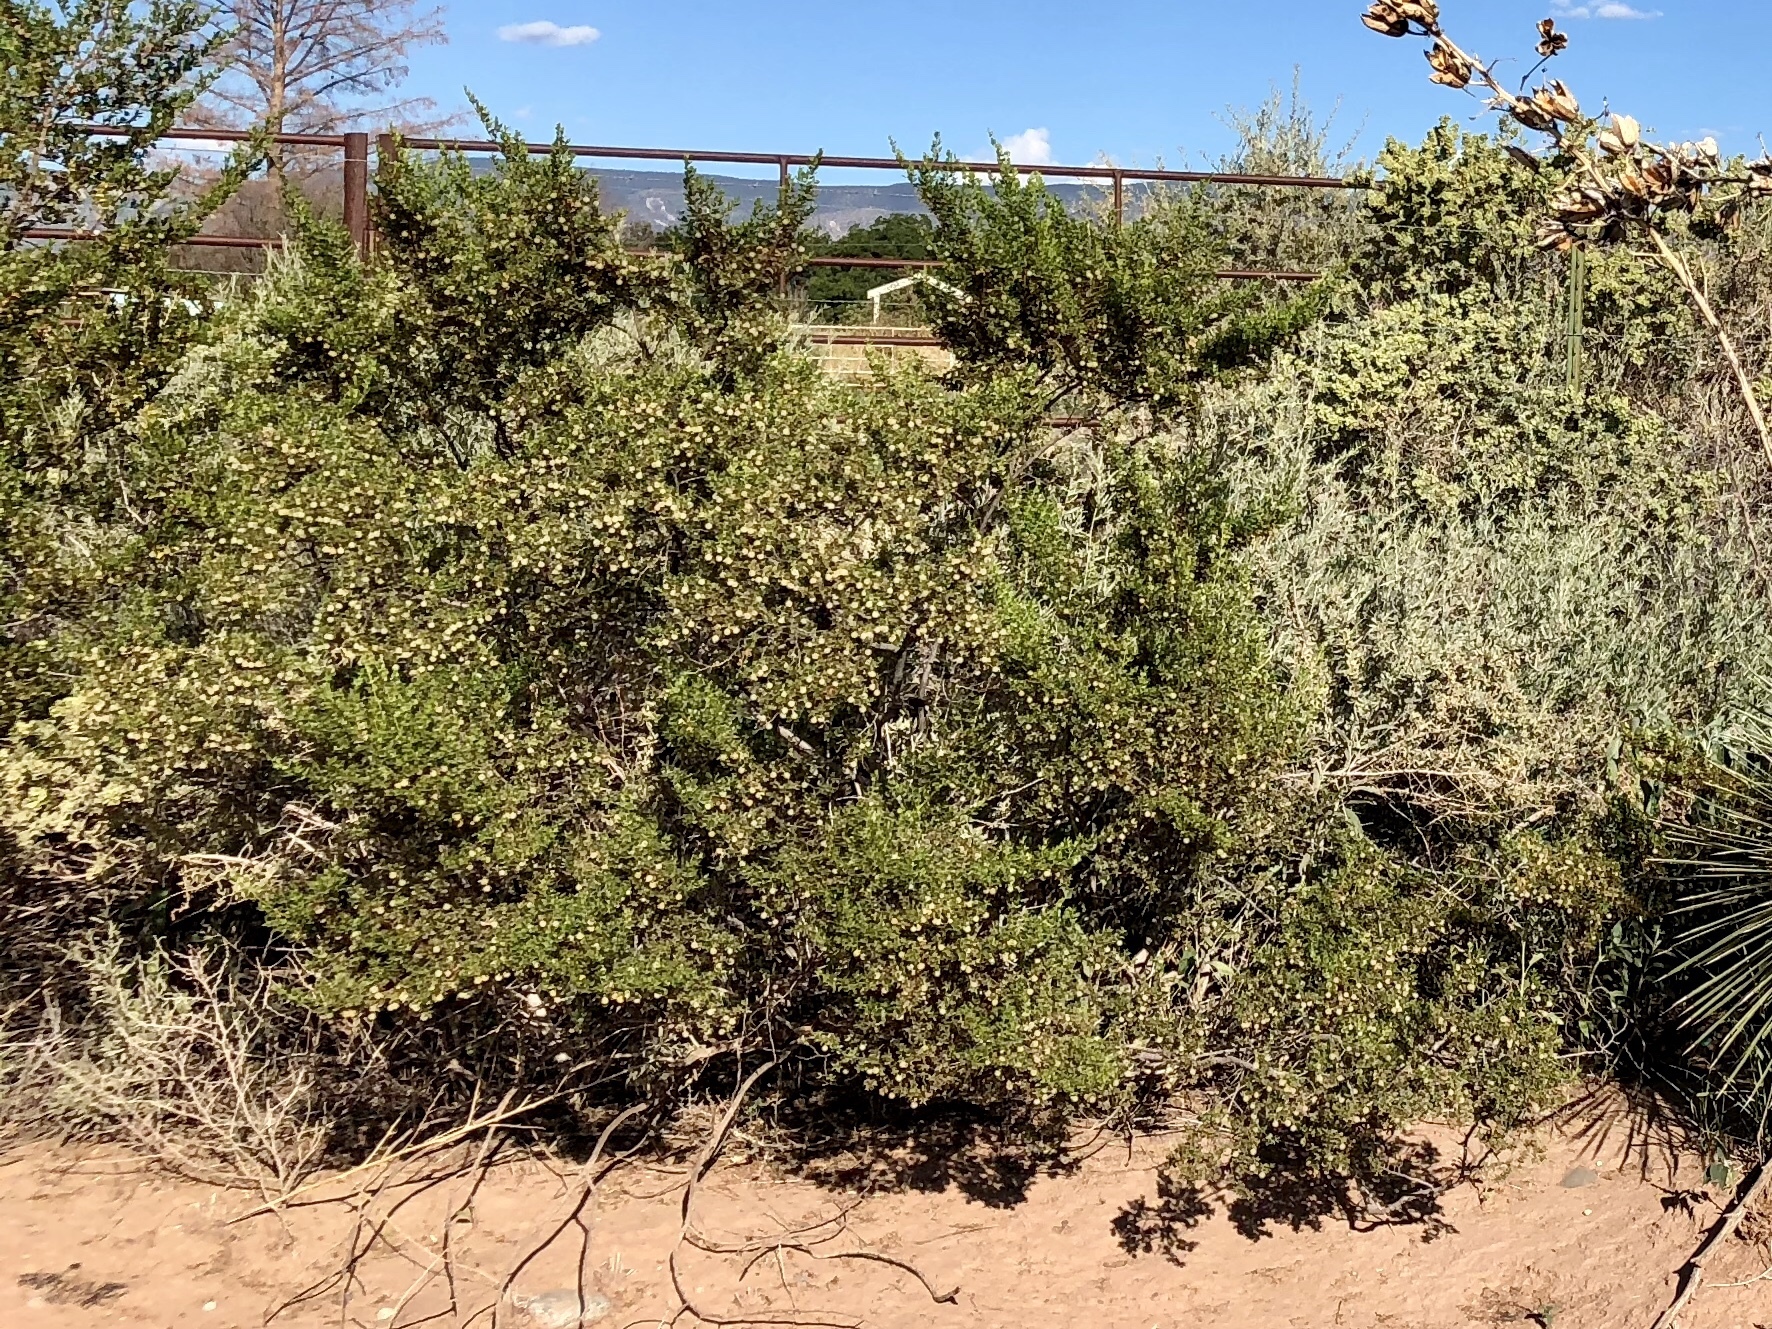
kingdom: Plantae
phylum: Tracheophyta
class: Magnoliopsida
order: Zygophyllales
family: Zygophyllaceae
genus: Larrea
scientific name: Larrea tridentata
